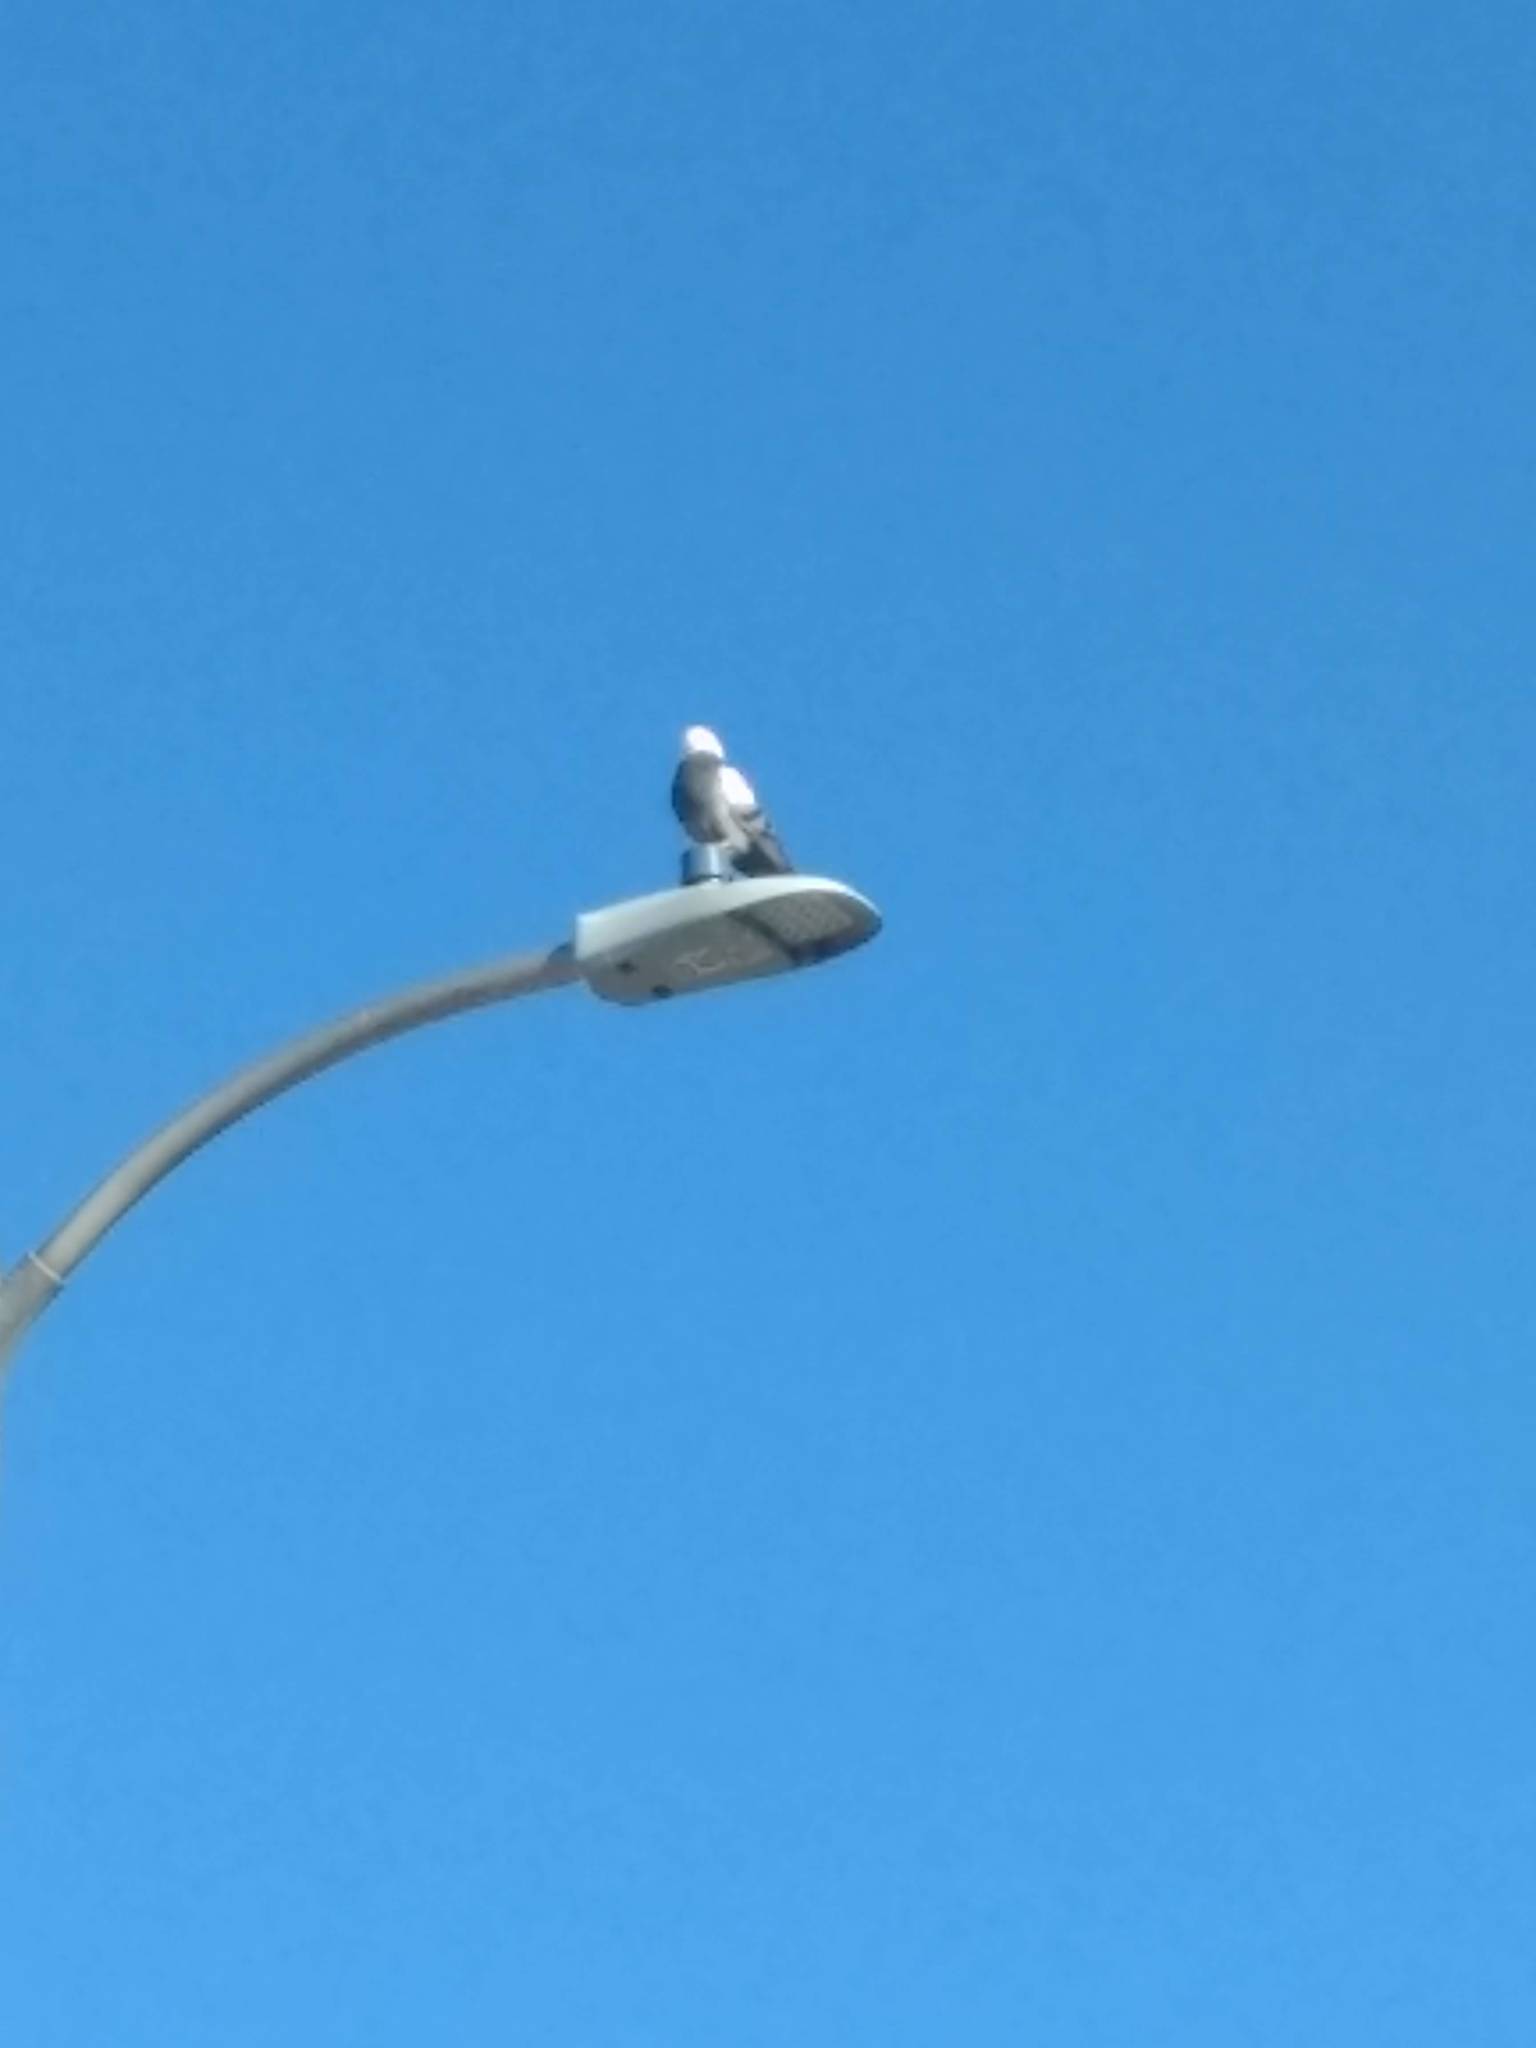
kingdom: Animalia
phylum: Chordata
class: Aves
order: Columbiformes
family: Columbidae
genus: Columba
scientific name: Columba livia
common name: Rock pigeon
